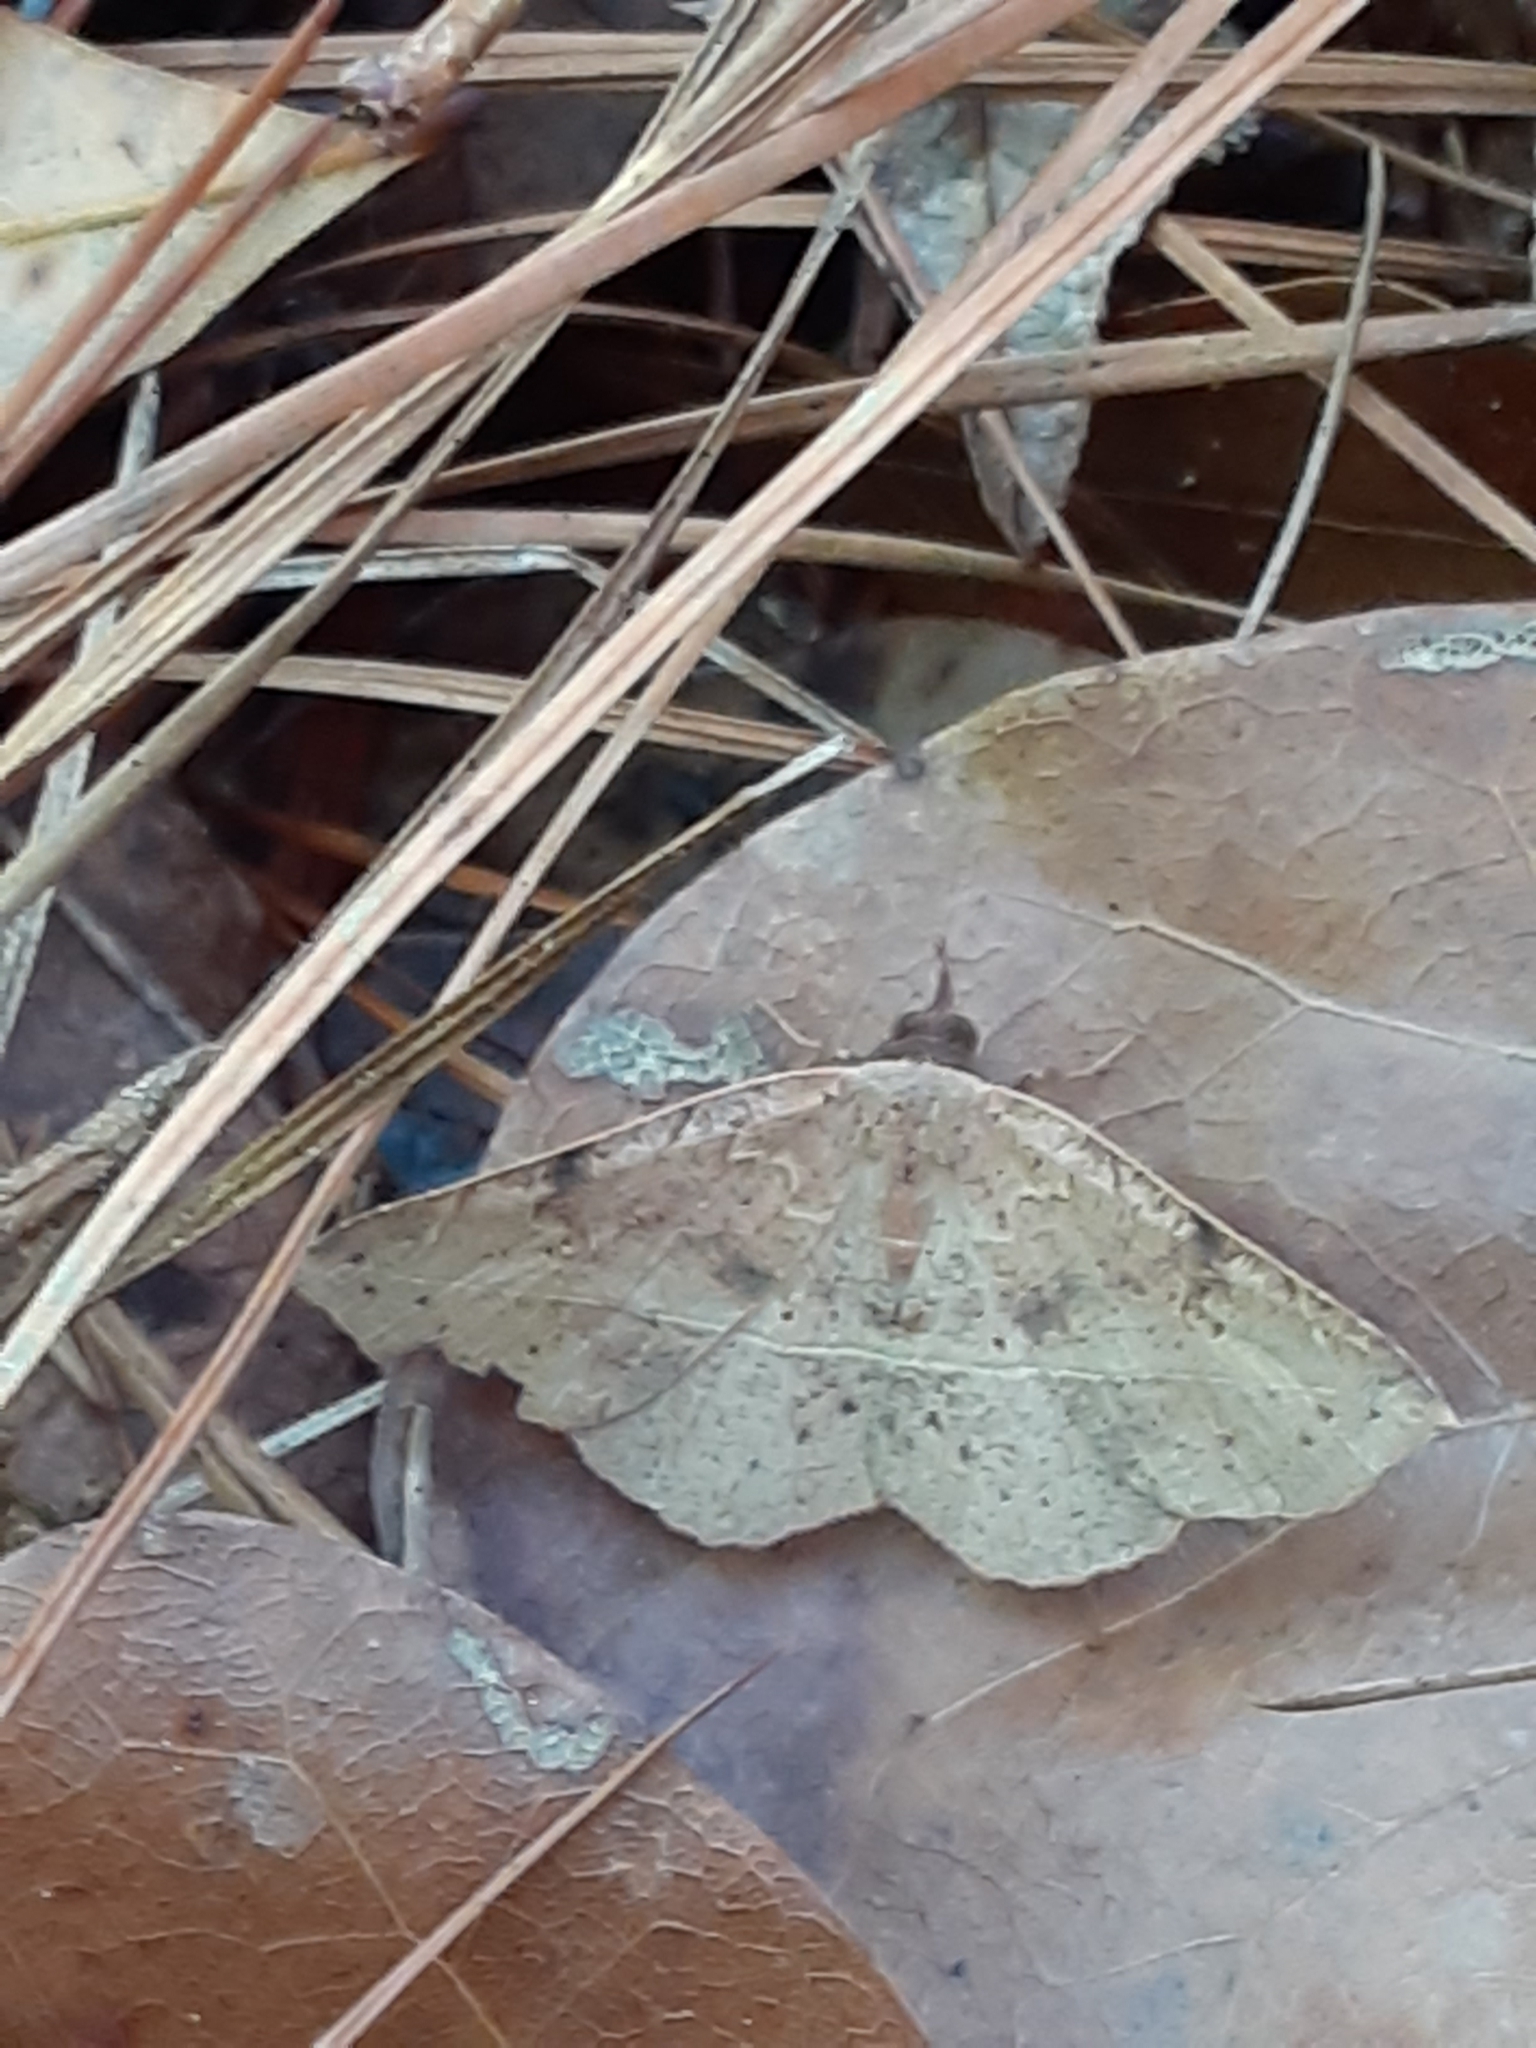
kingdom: Animalia
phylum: Arthropoda
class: Insecta
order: Lepidoptera
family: Erebidae
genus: Metallata
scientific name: Metallata absumens
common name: Brown leaf mimic
